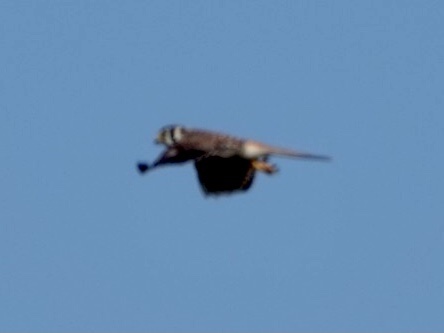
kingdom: Animalia
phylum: Chordata
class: Aves
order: Falconiformes
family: Falconidae
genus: Falco
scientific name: Falco sparverius
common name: American kestrel
